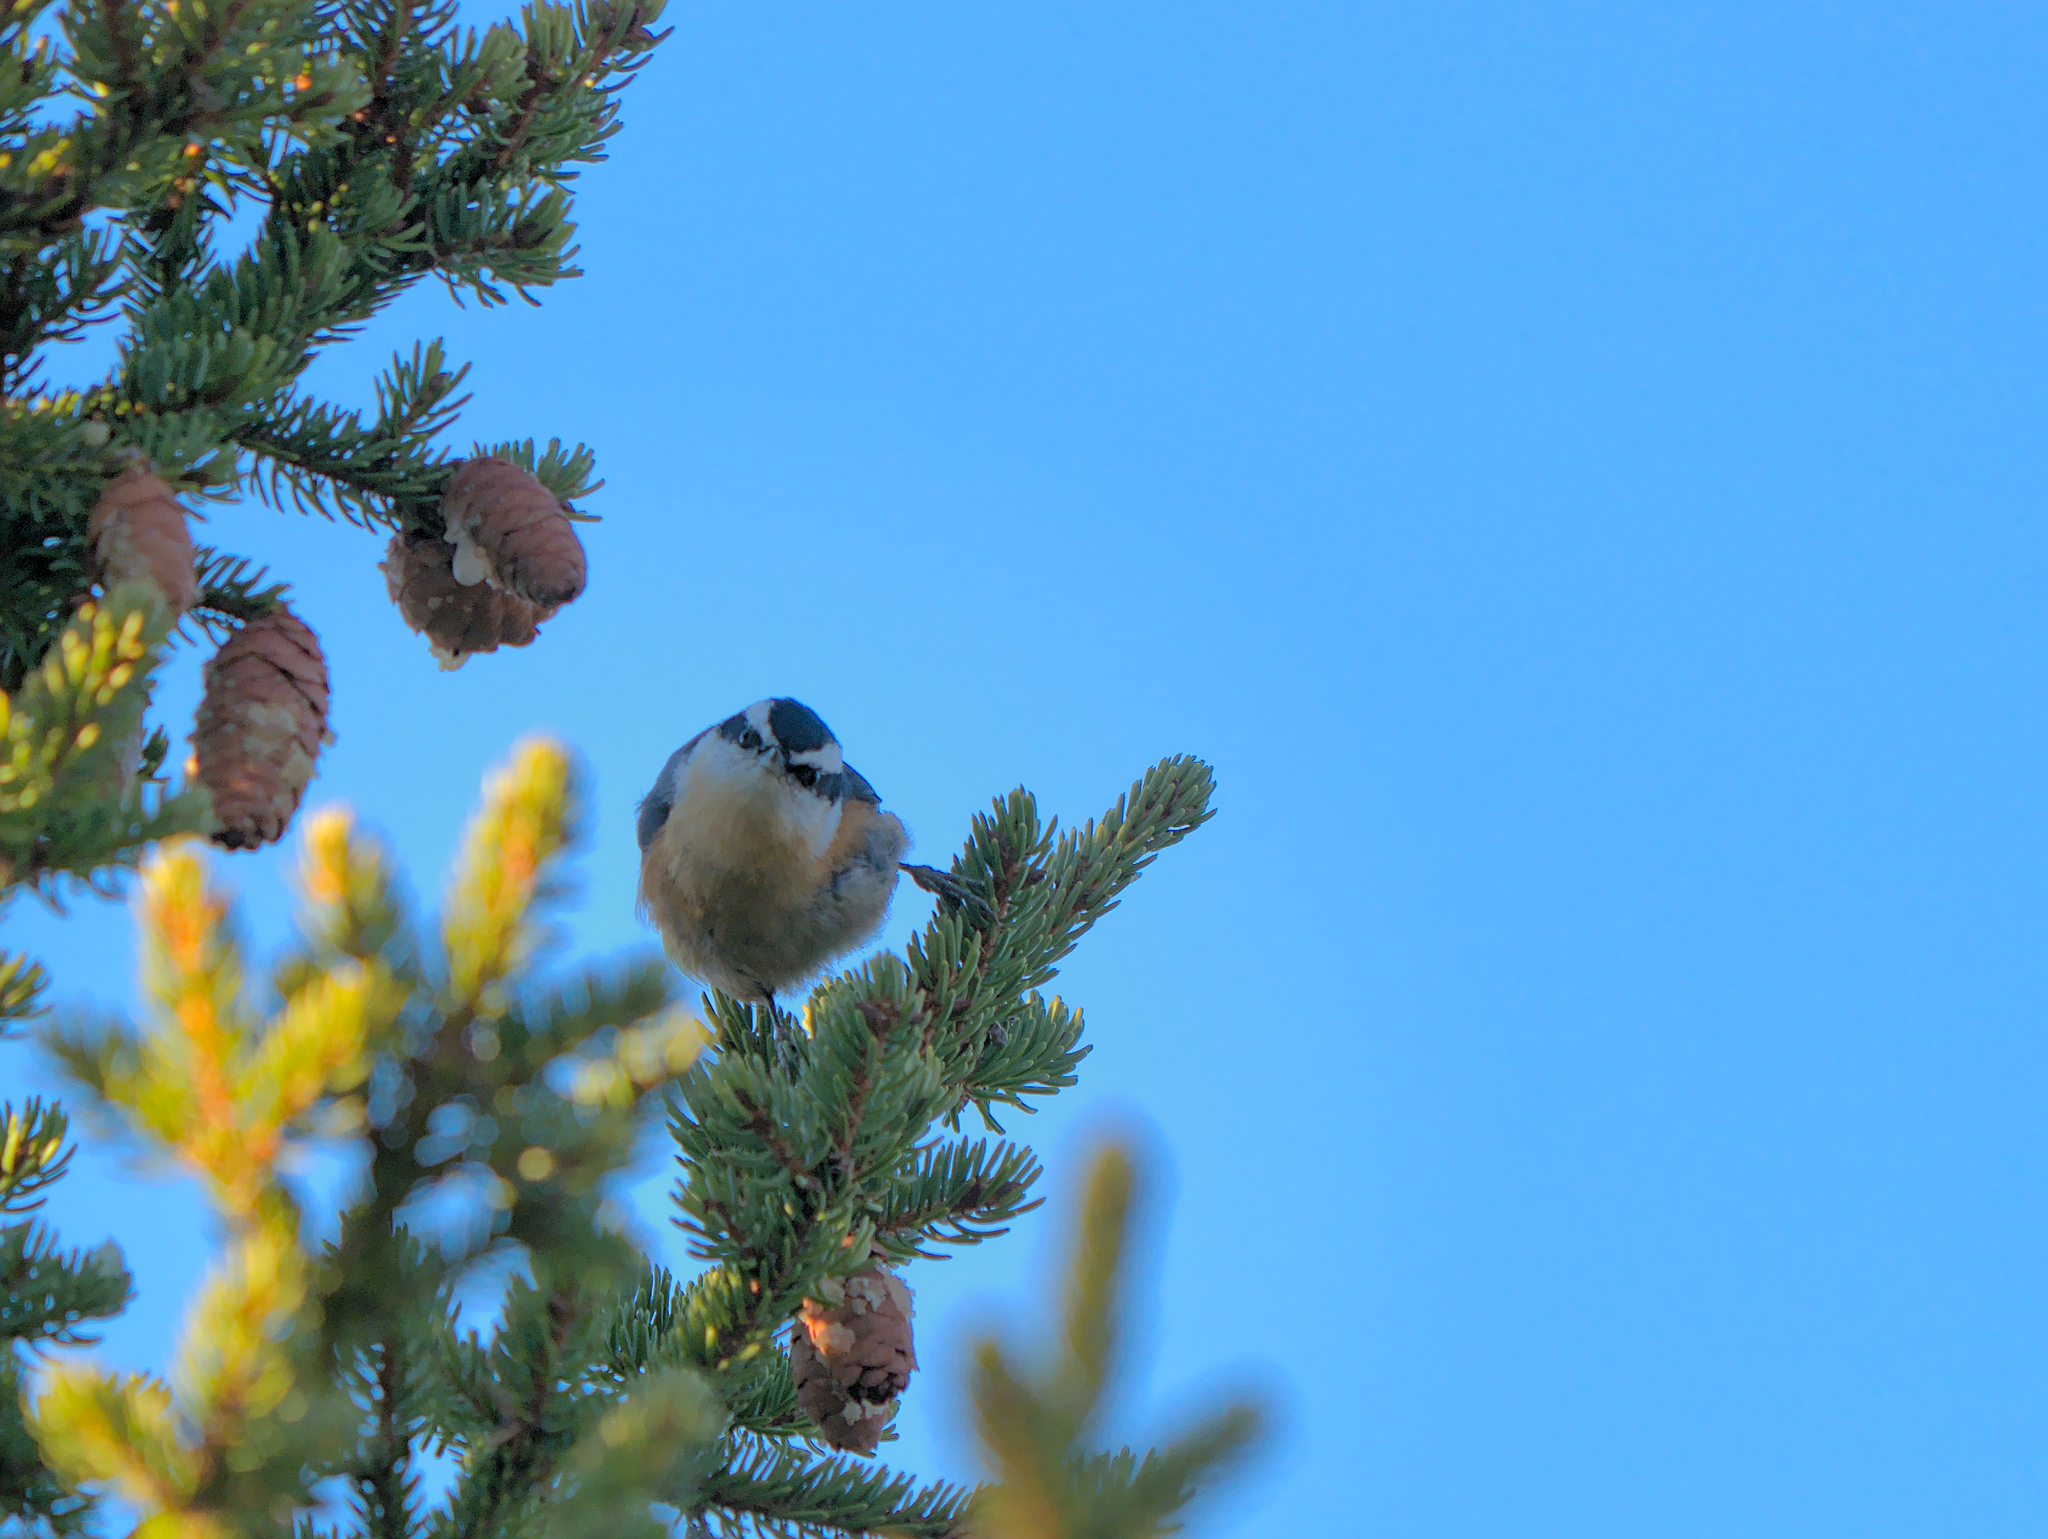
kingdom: Animalia
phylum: Chordata
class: Aves
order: Passeriformes
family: Sittidae
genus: Sitta
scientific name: Sitta canadensis
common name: Red-breasted nuthatch
